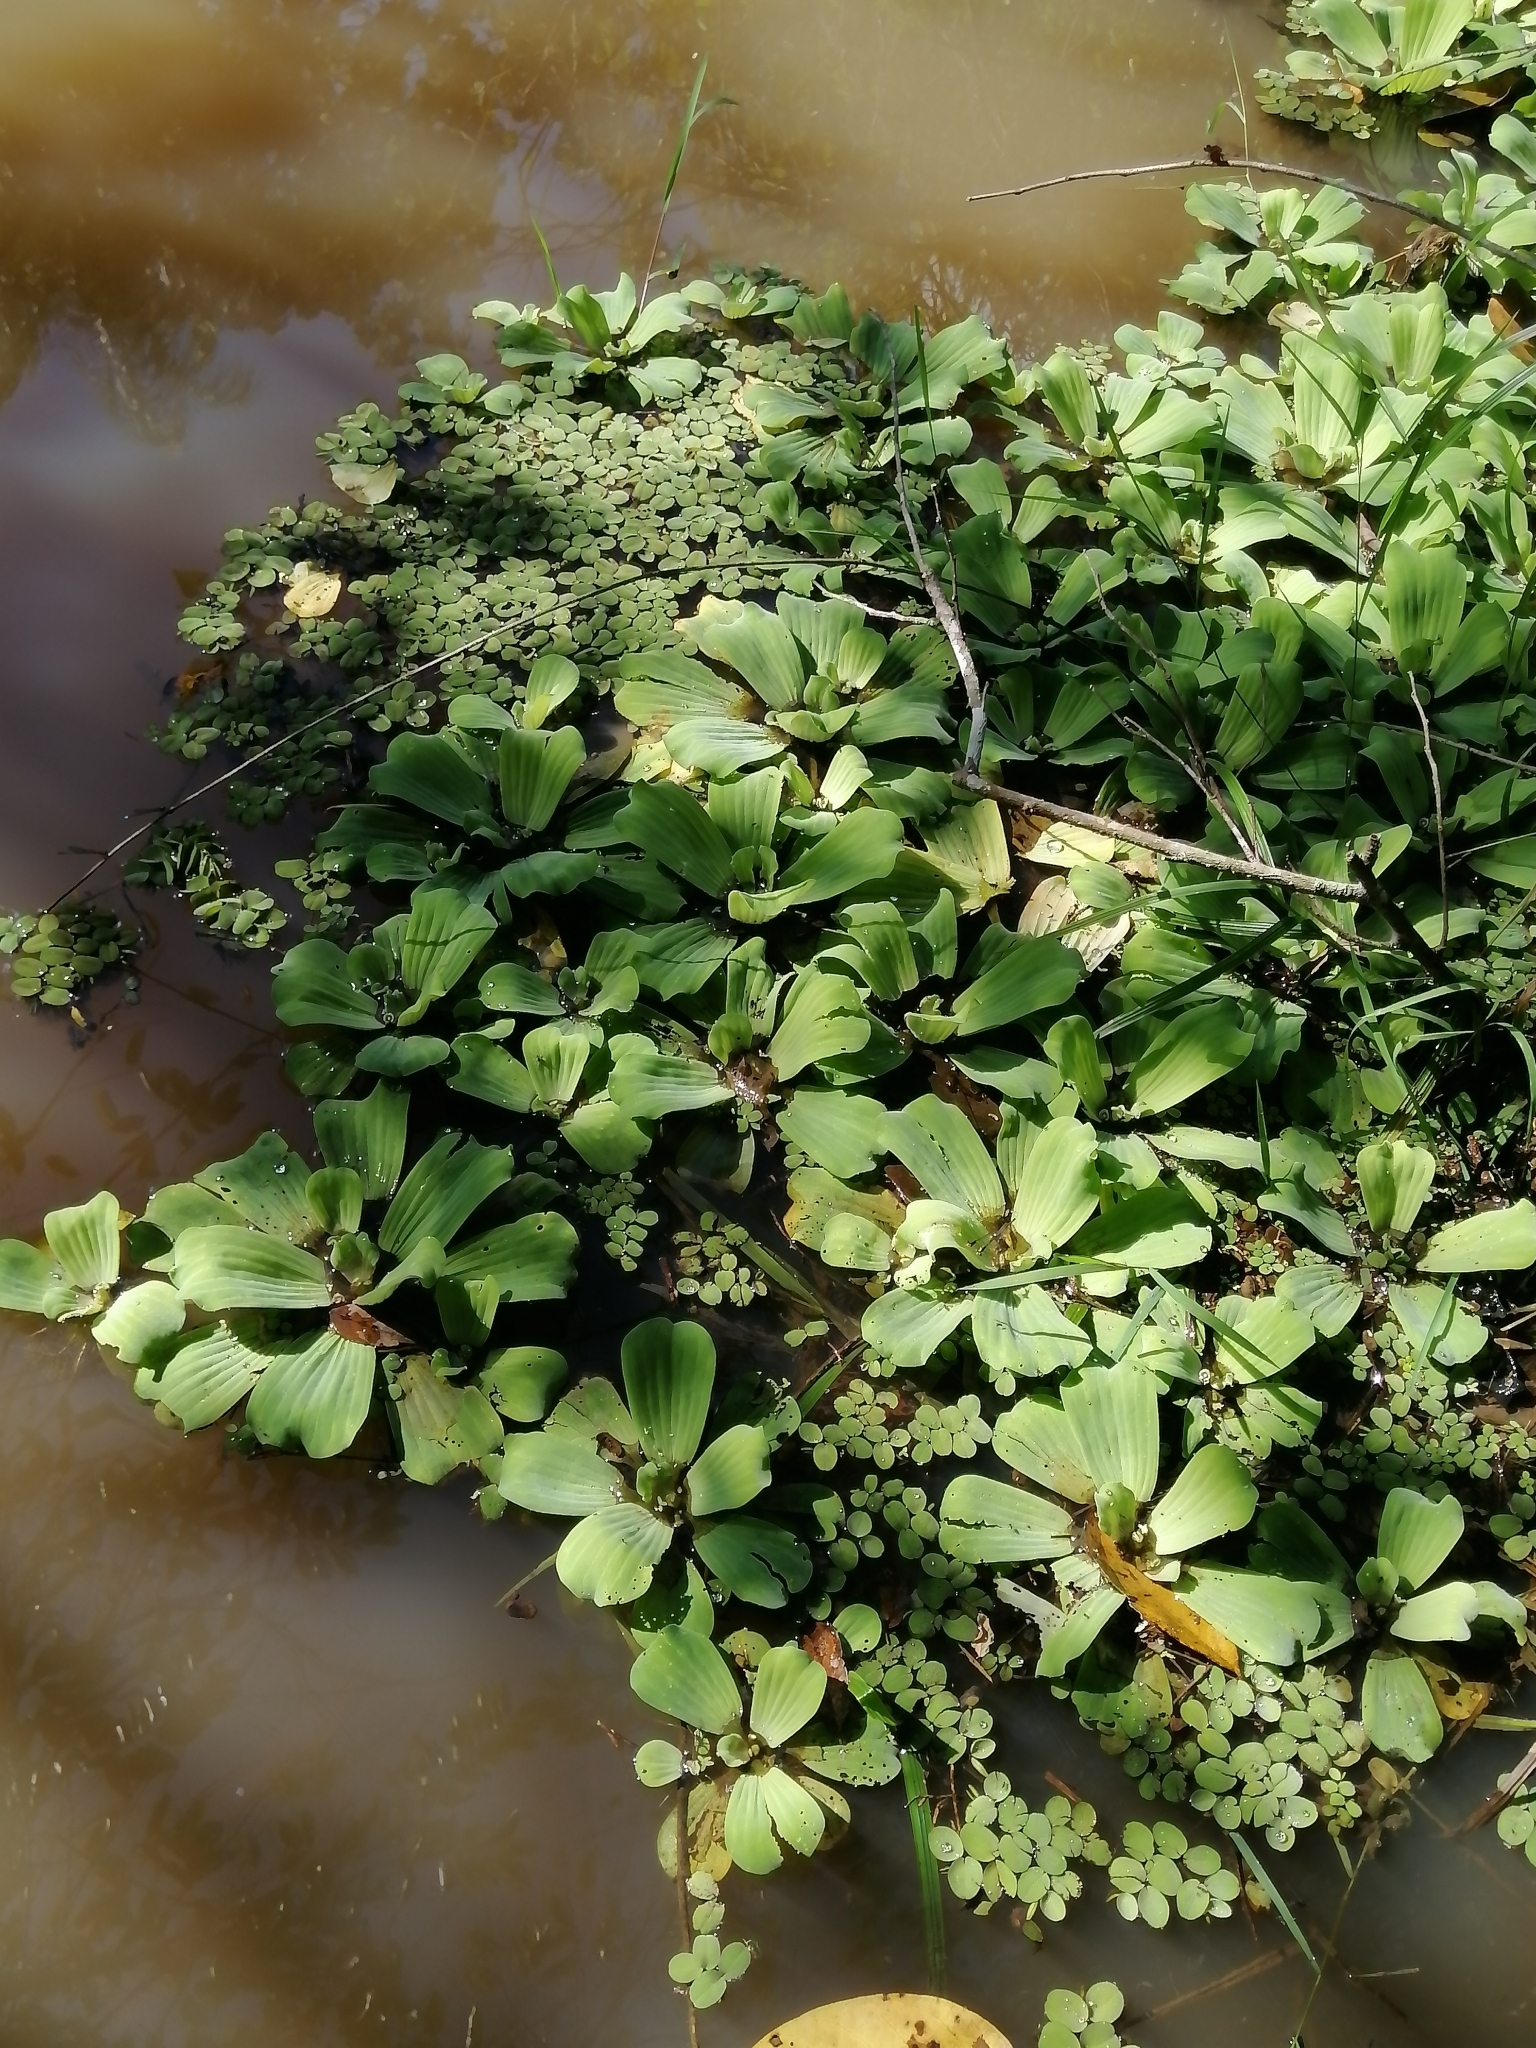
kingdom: Plantae
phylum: Tracheophyta
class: Liliopsida
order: Alismatales
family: Araceae
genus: Pistia
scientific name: Pistia stratiotes
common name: Water lettuce
